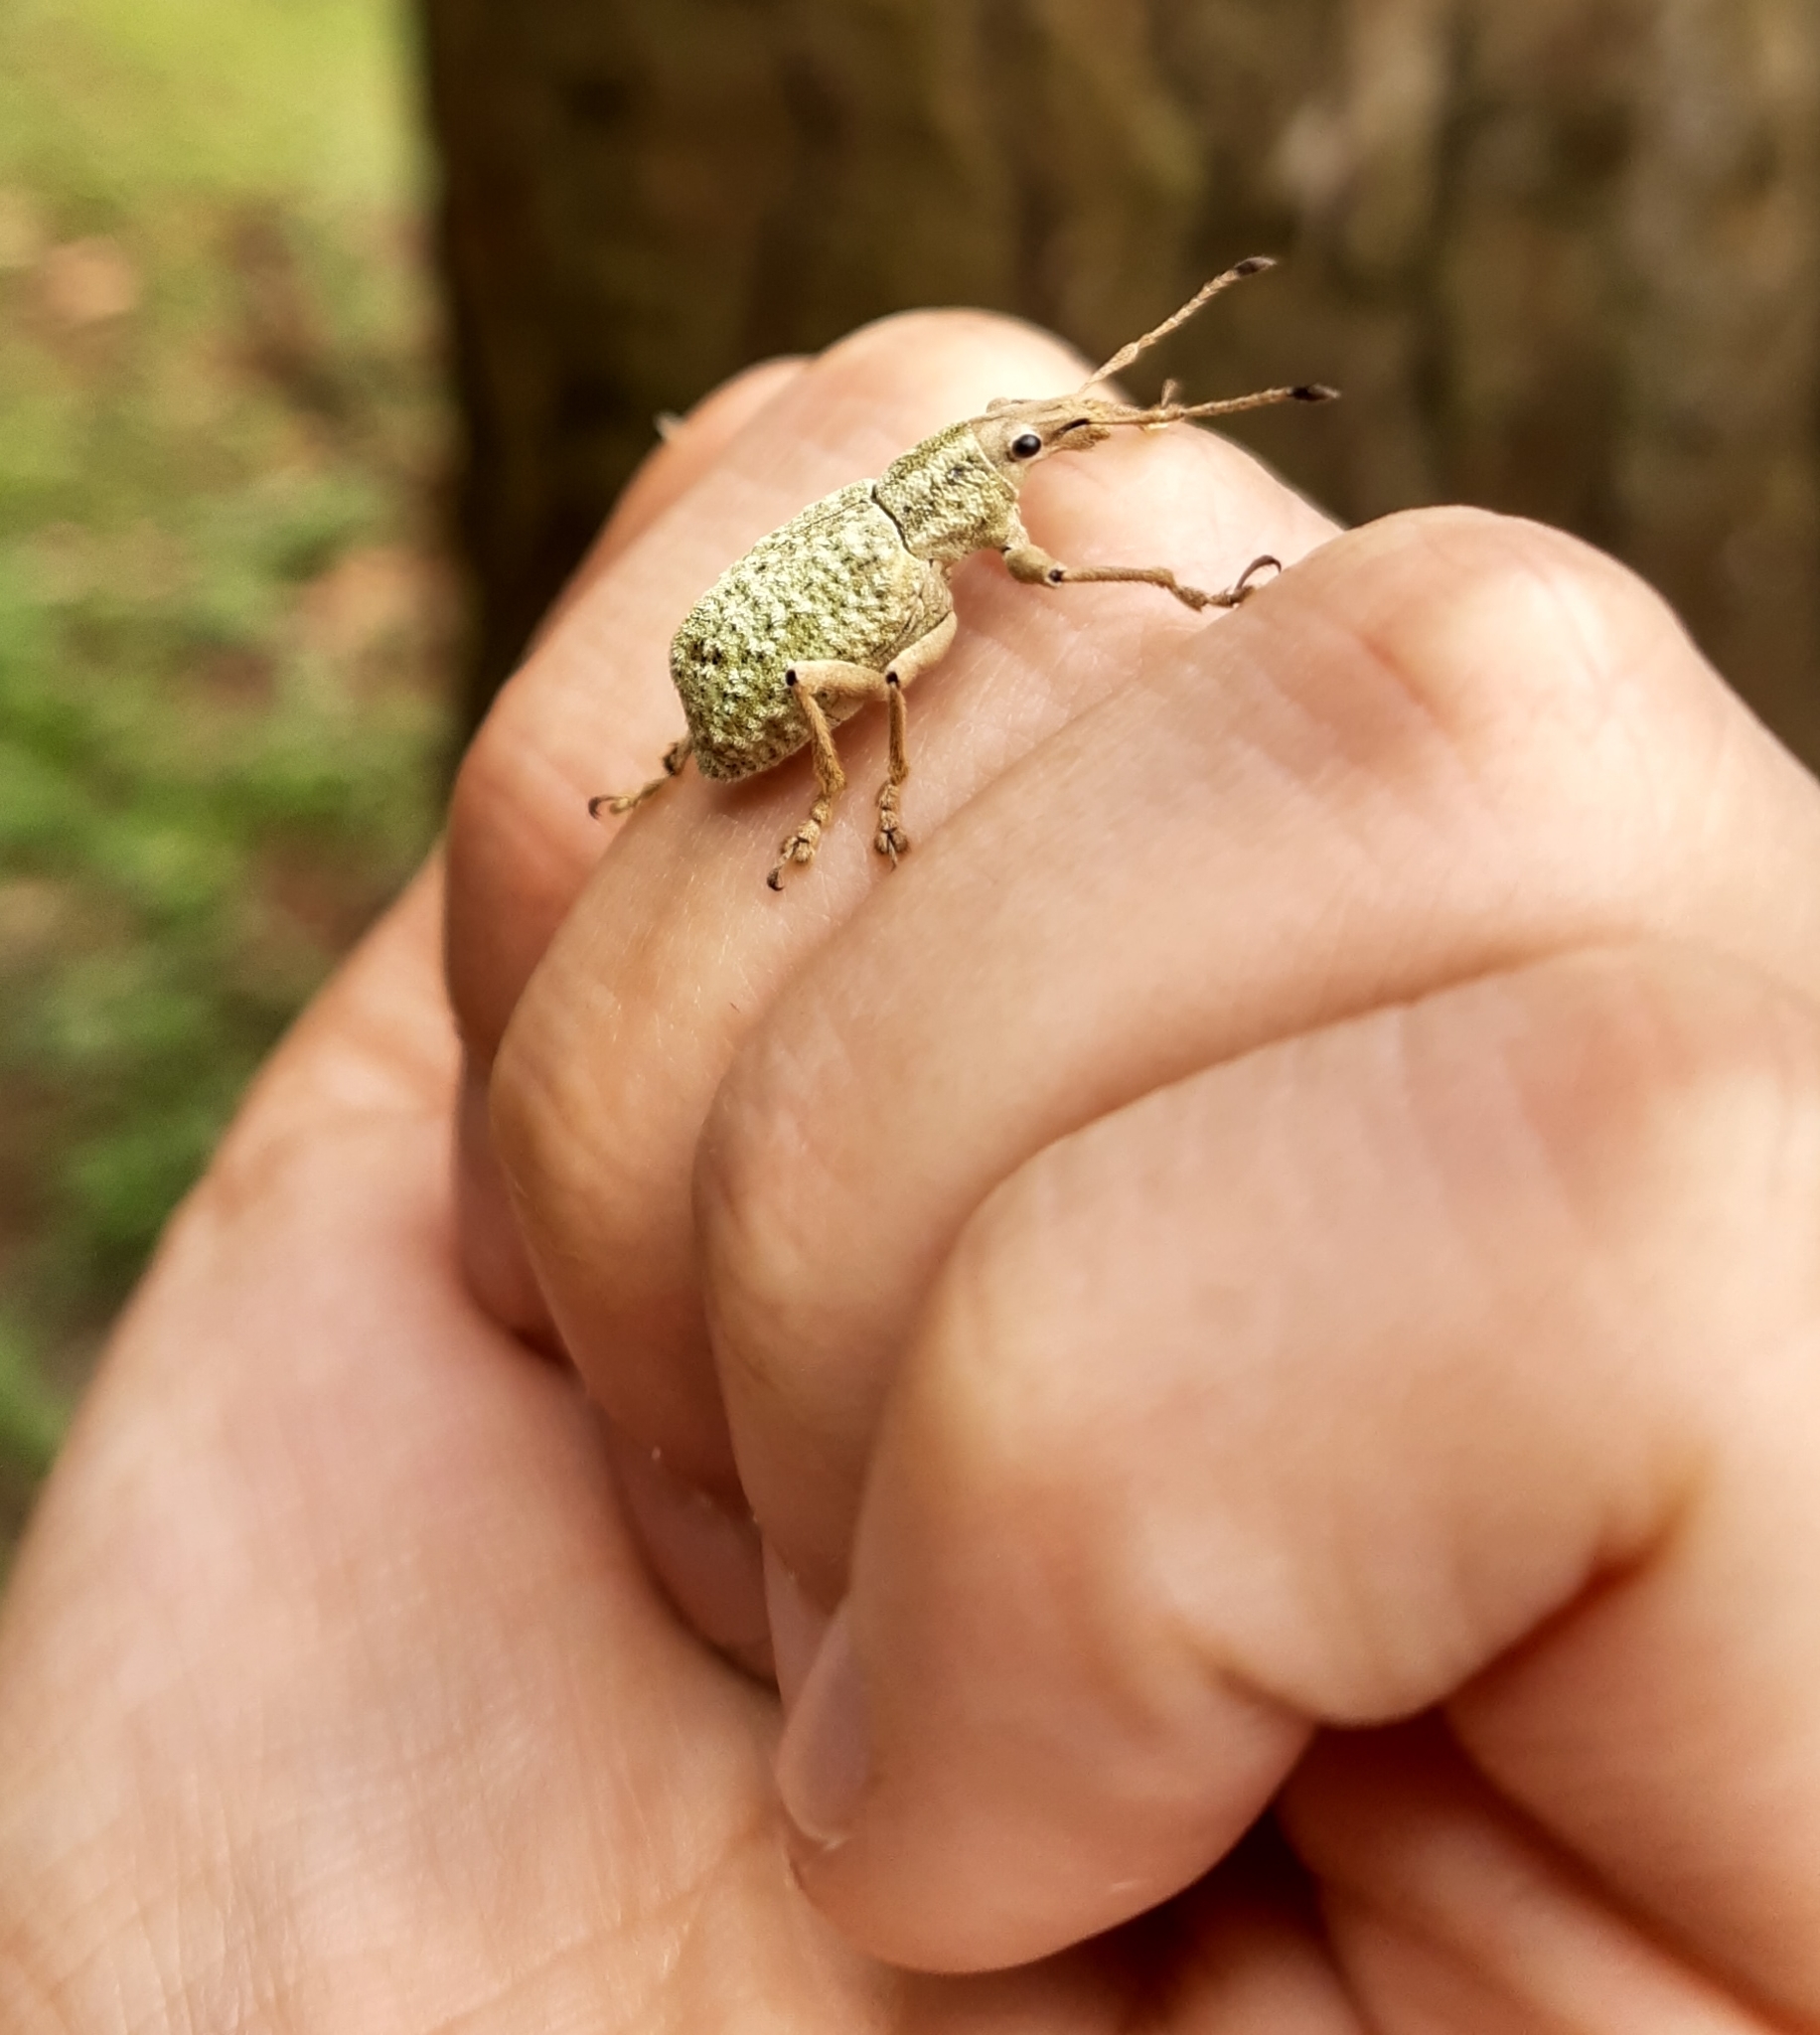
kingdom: Animalia
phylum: Arthropoda
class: Insecta
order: Coleoptera
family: Curculionidae
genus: Cyrtomon
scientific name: Cyrtomon gibber
